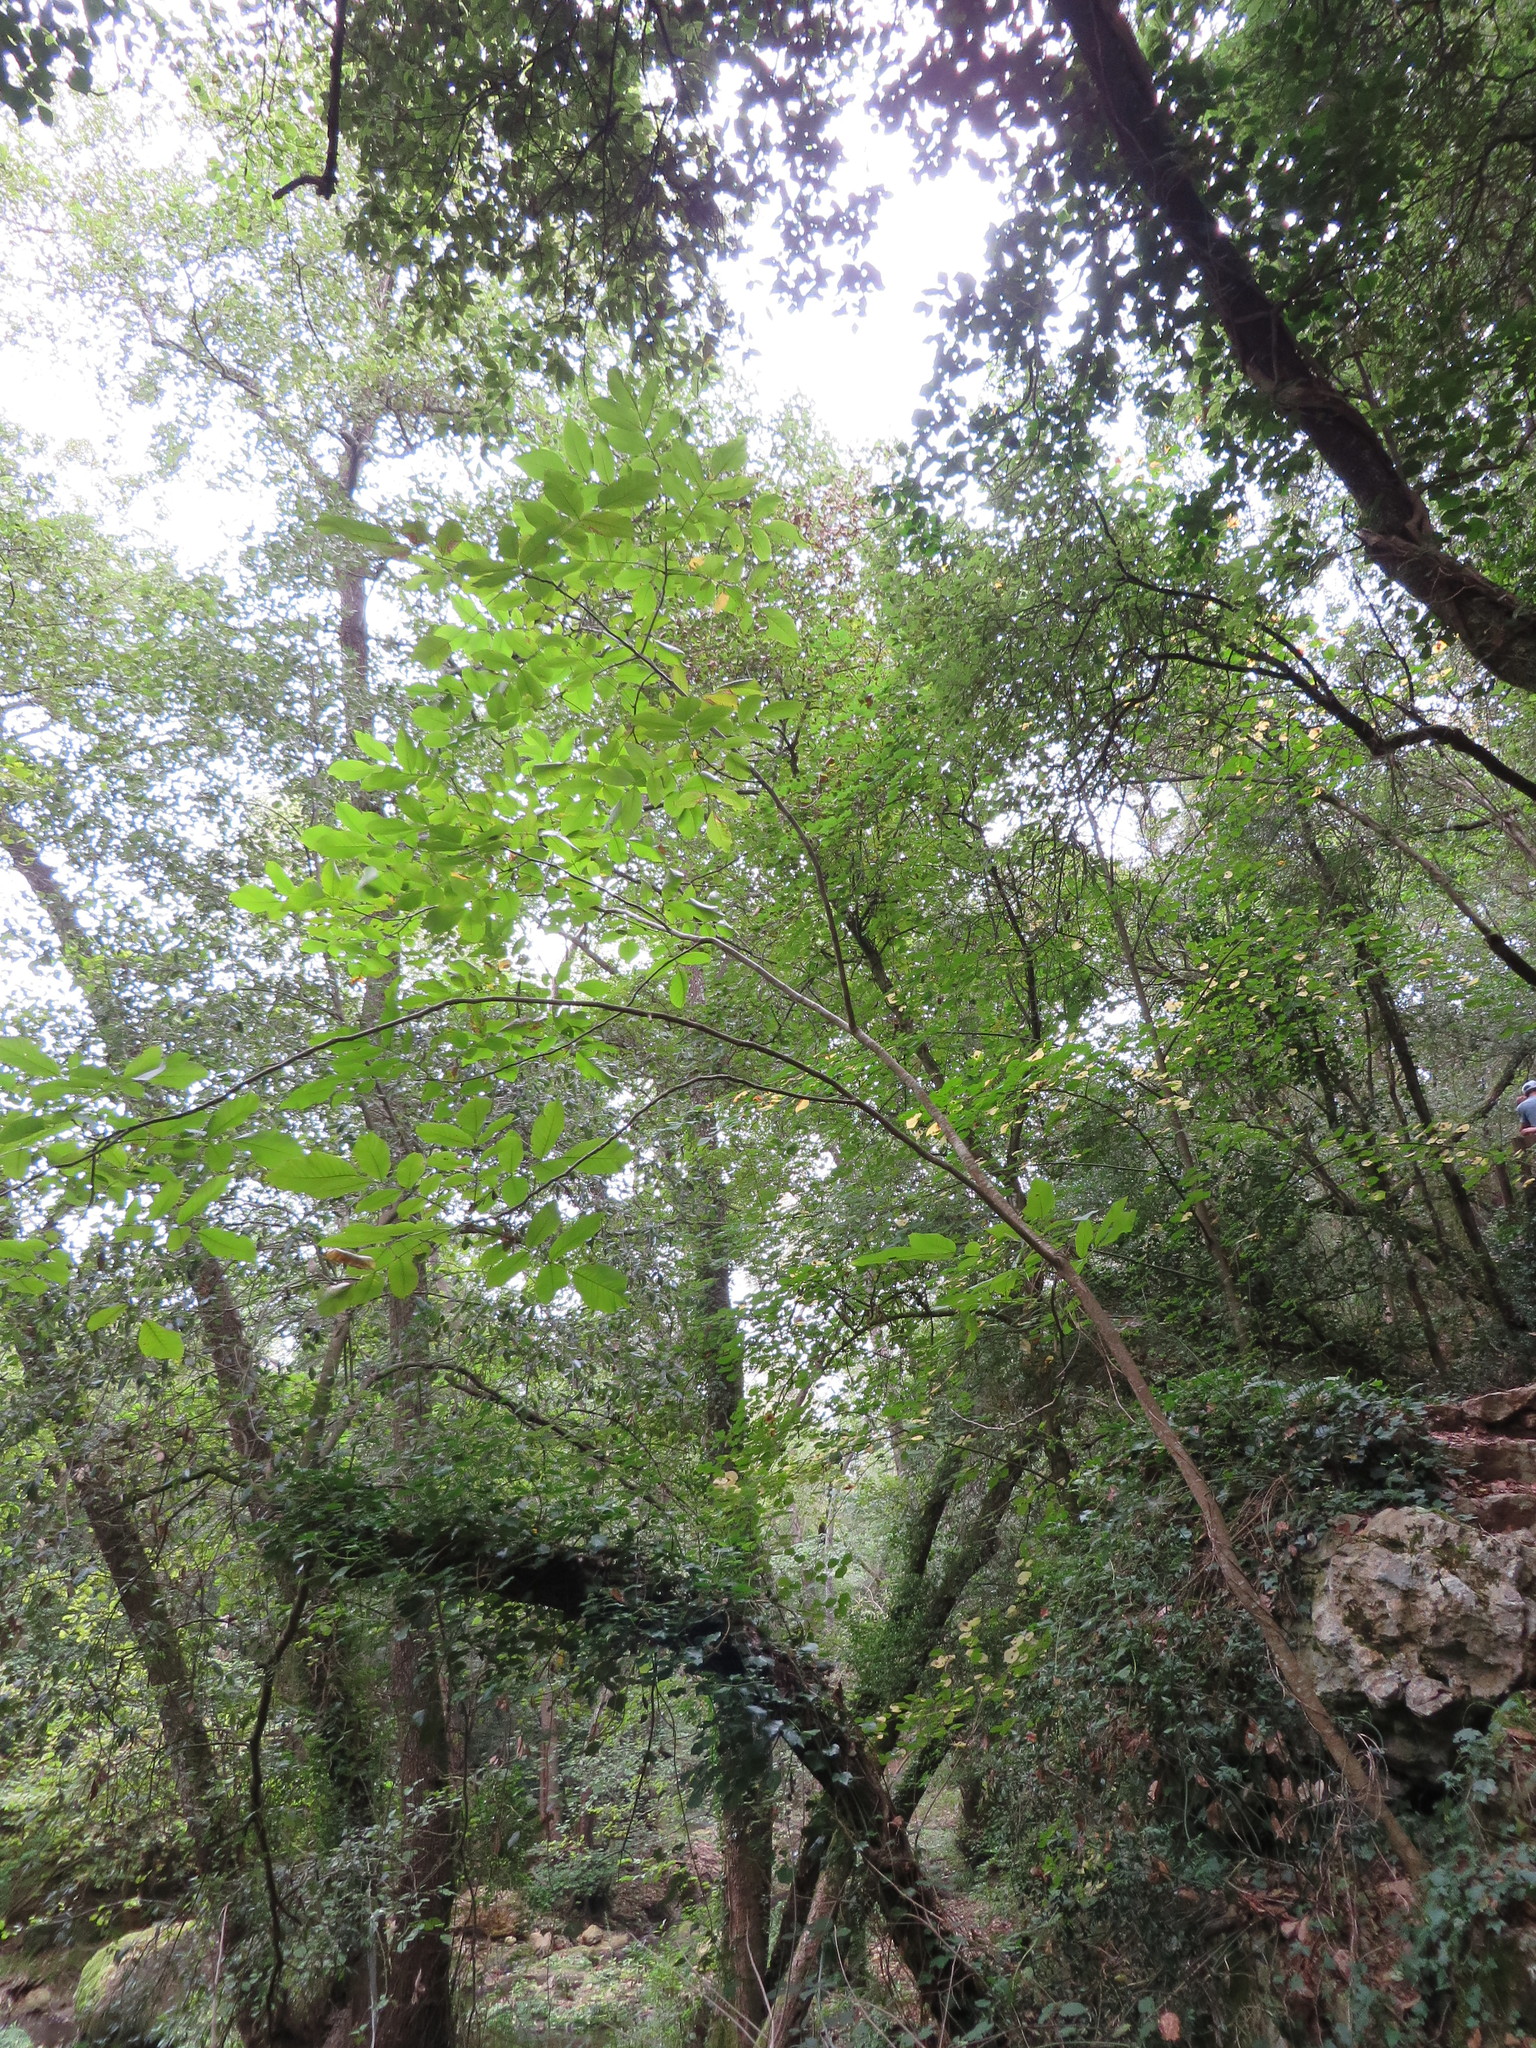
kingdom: Plantae
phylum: Tracheophyta
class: Magnoliopsida
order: Fagales
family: Juglandaceae
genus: Juglans
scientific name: Juglans regia
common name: Walnut
